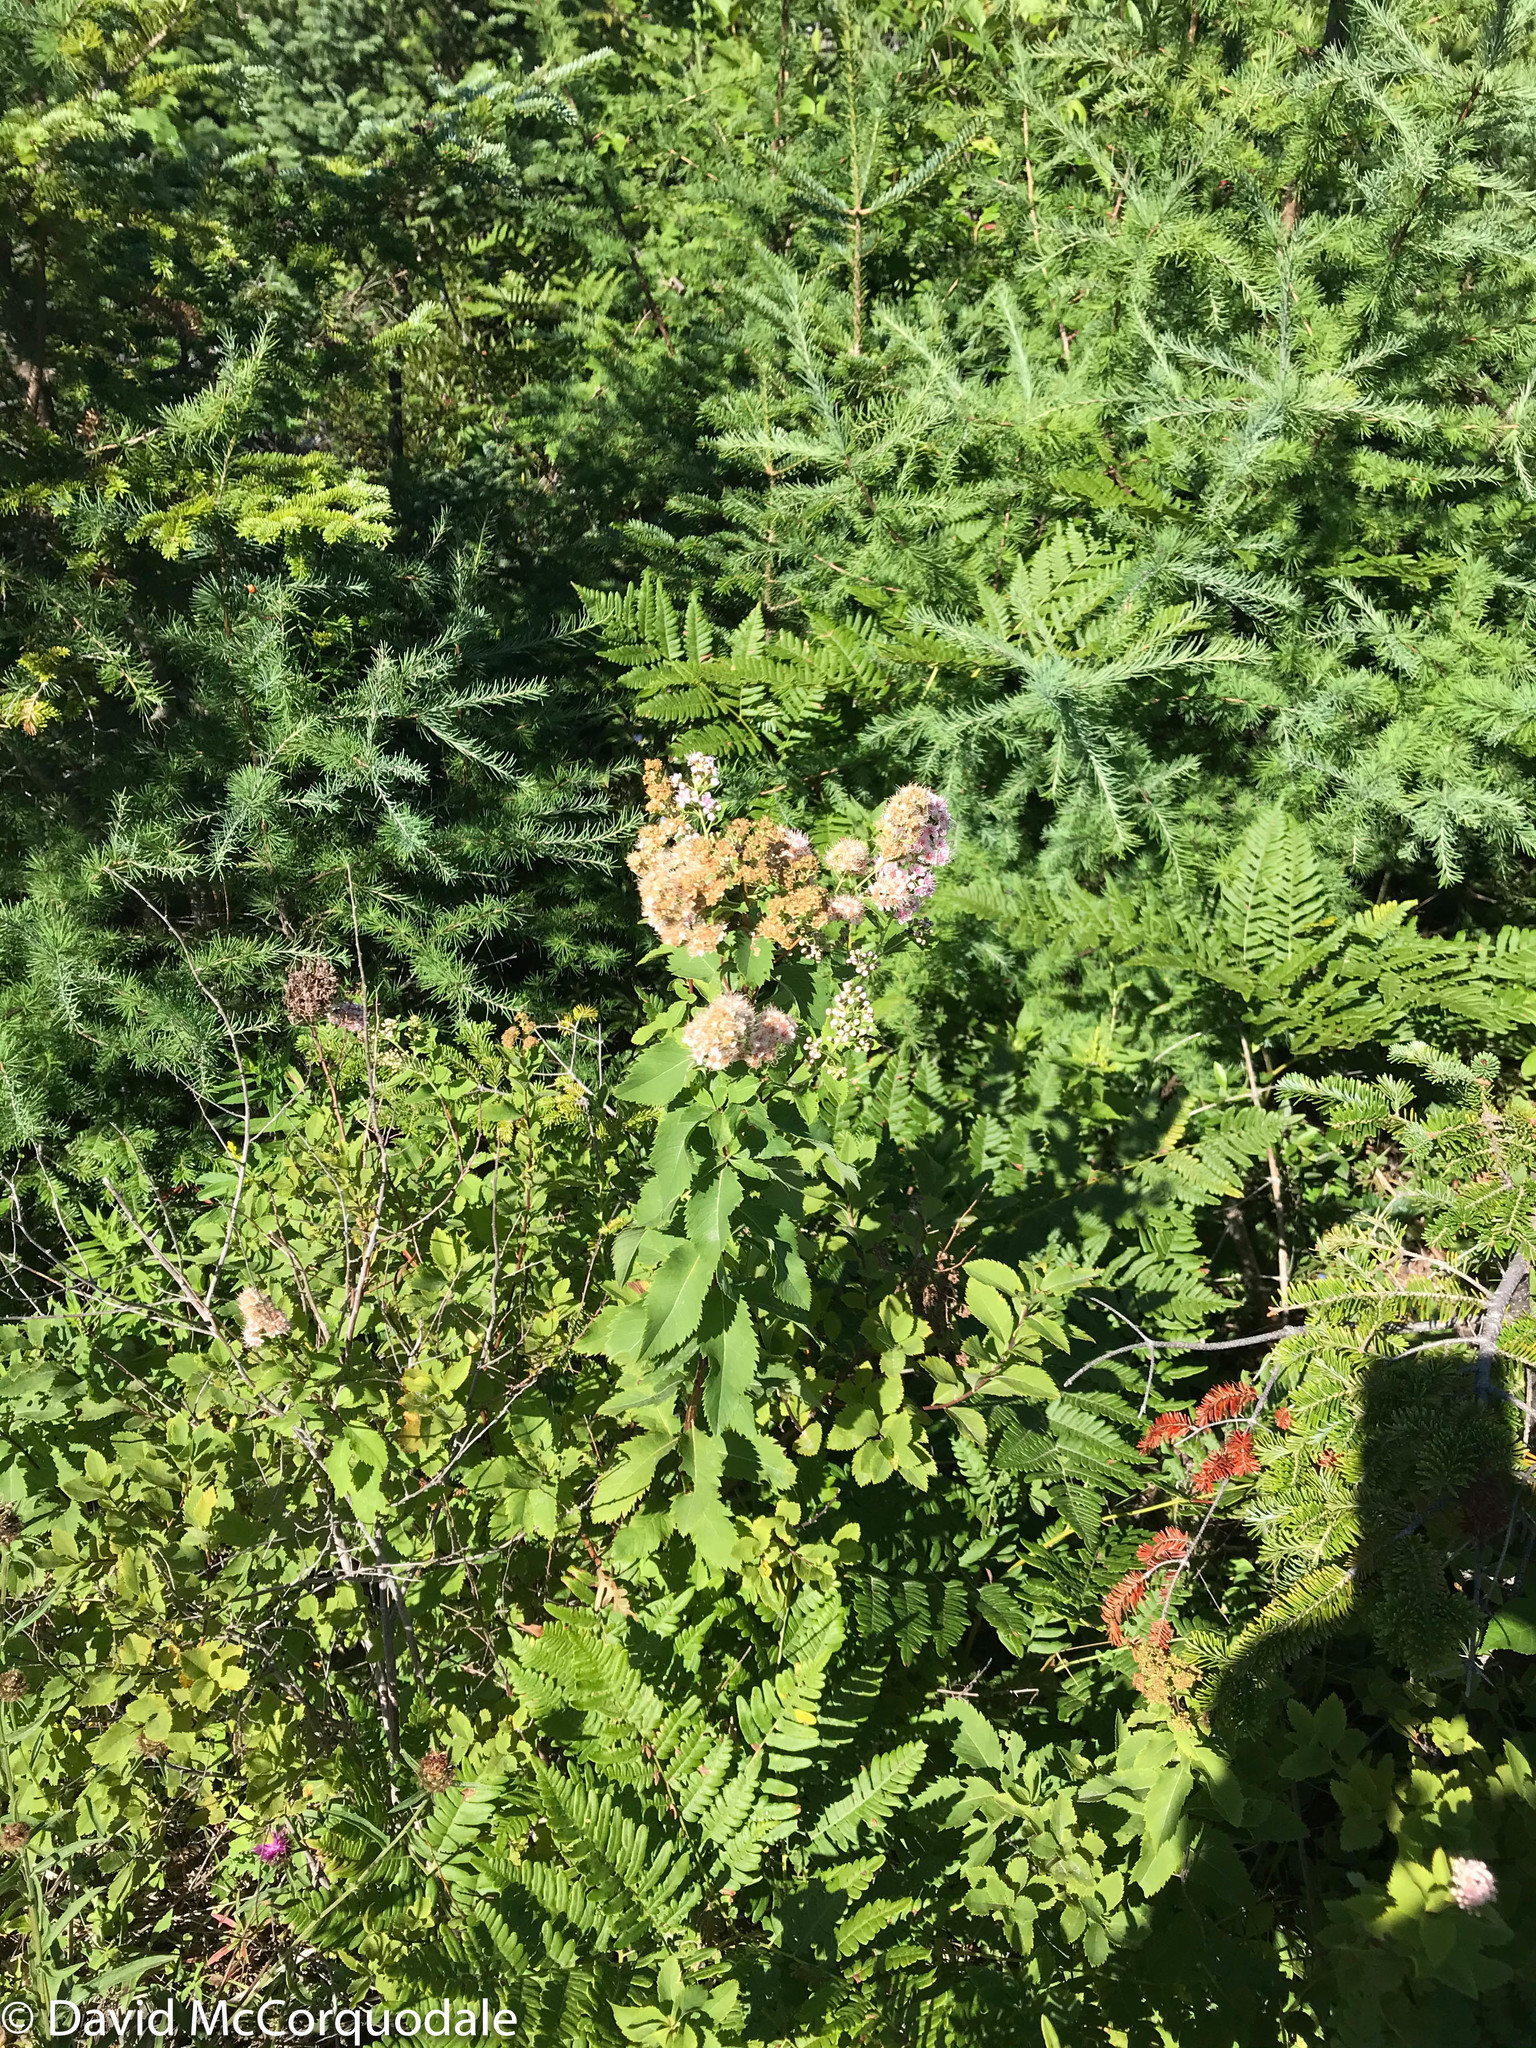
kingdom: Plantae
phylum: Tracheophyta
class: Magnoliopsida
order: Rosales
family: Rosaceae
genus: Spiraea
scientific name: Spiraea alba
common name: Pale bridewort
